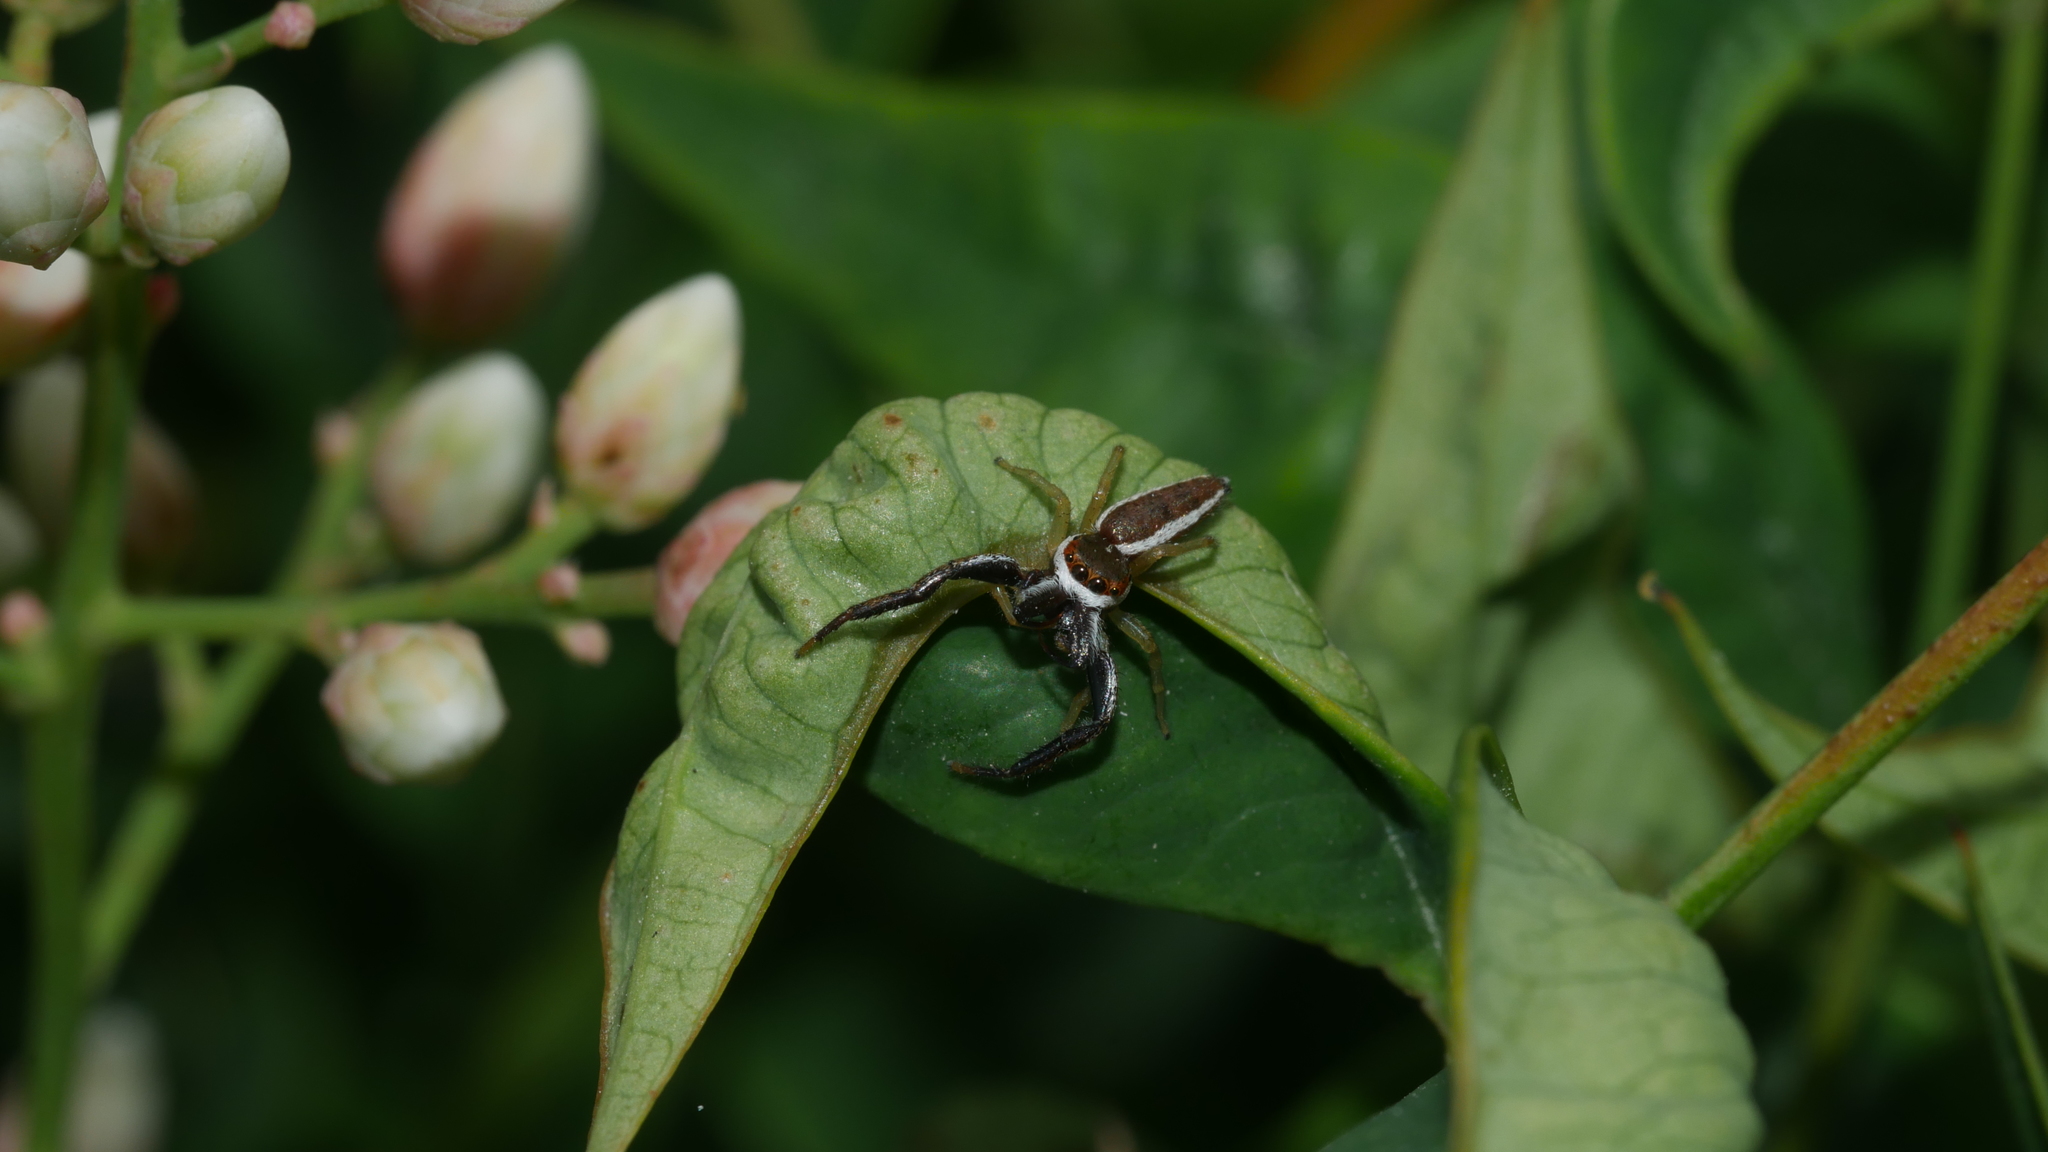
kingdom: Animalia
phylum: Arthropoda
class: Arachnida
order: Araneae
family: Salticidae
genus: Hentzia
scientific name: Hentzia palmarum
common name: Common hentz jumping spider
